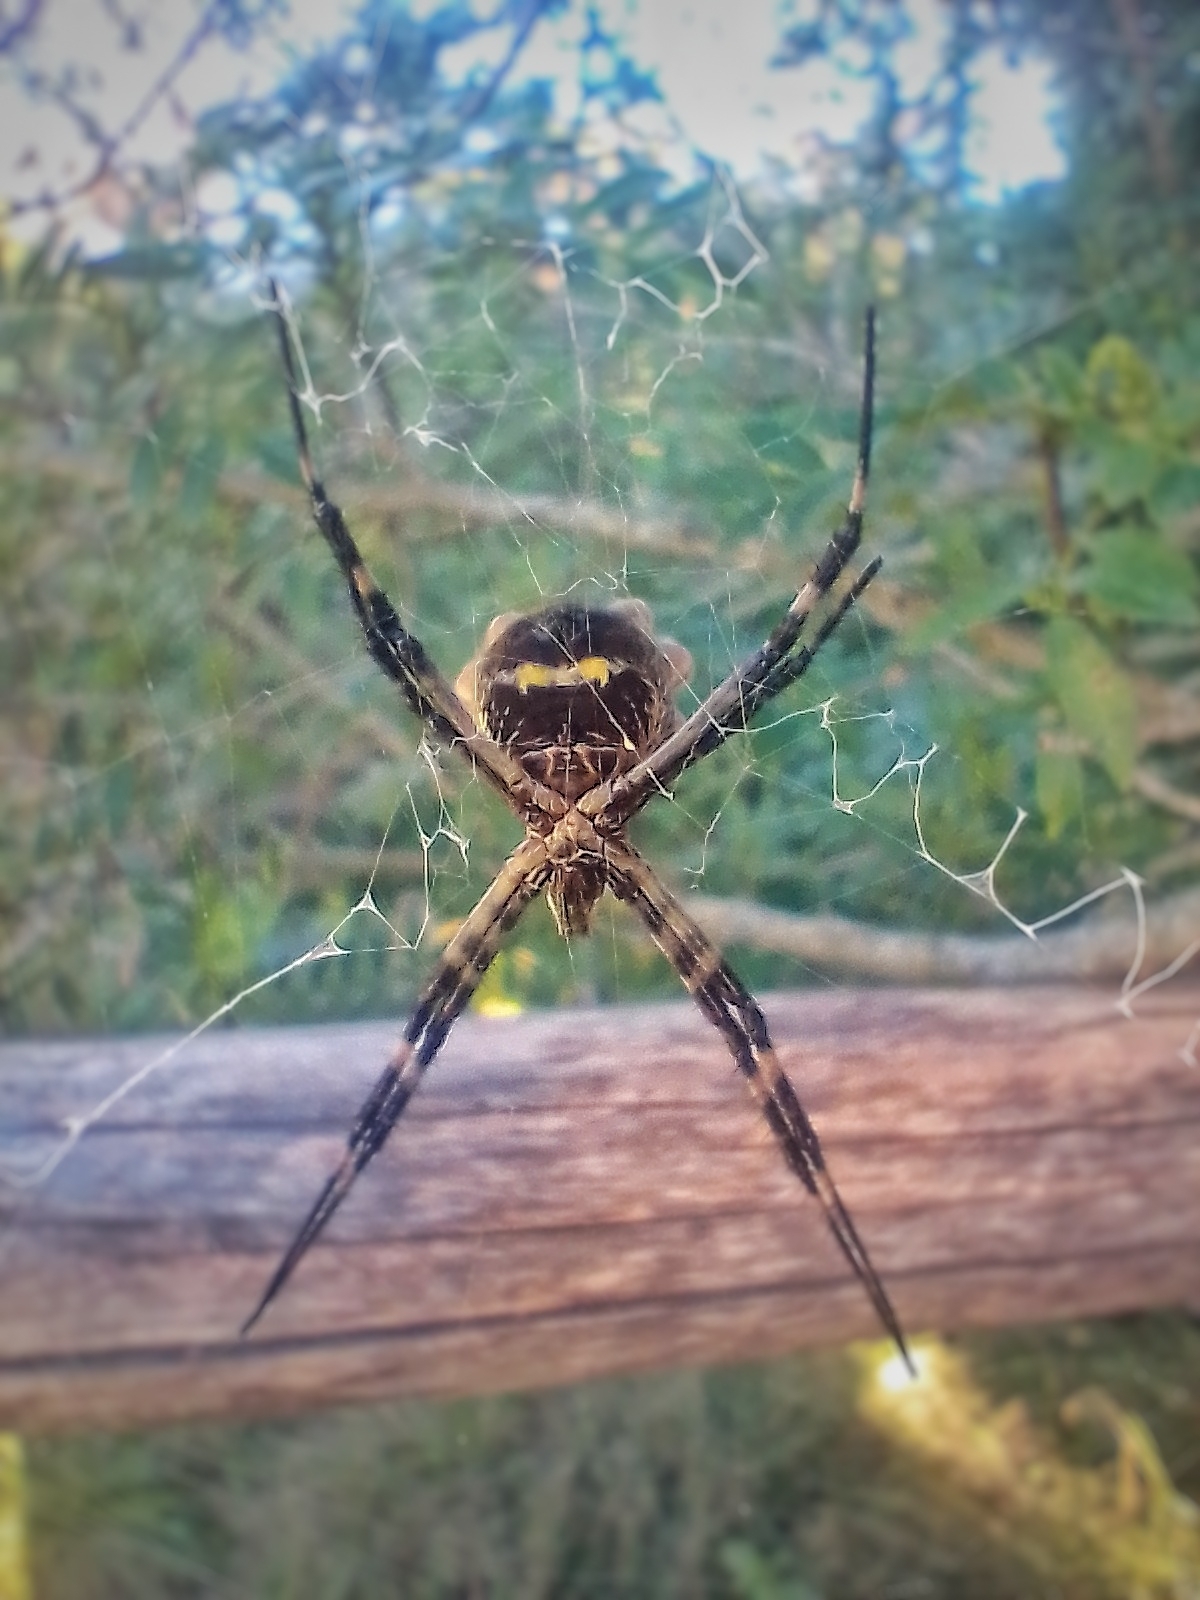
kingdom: Animalia
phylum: Arthropoda
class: Arachnida
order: Araneae
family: Araneidae
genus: Argiope
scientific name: Argiope argentata
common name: Orb weavers
